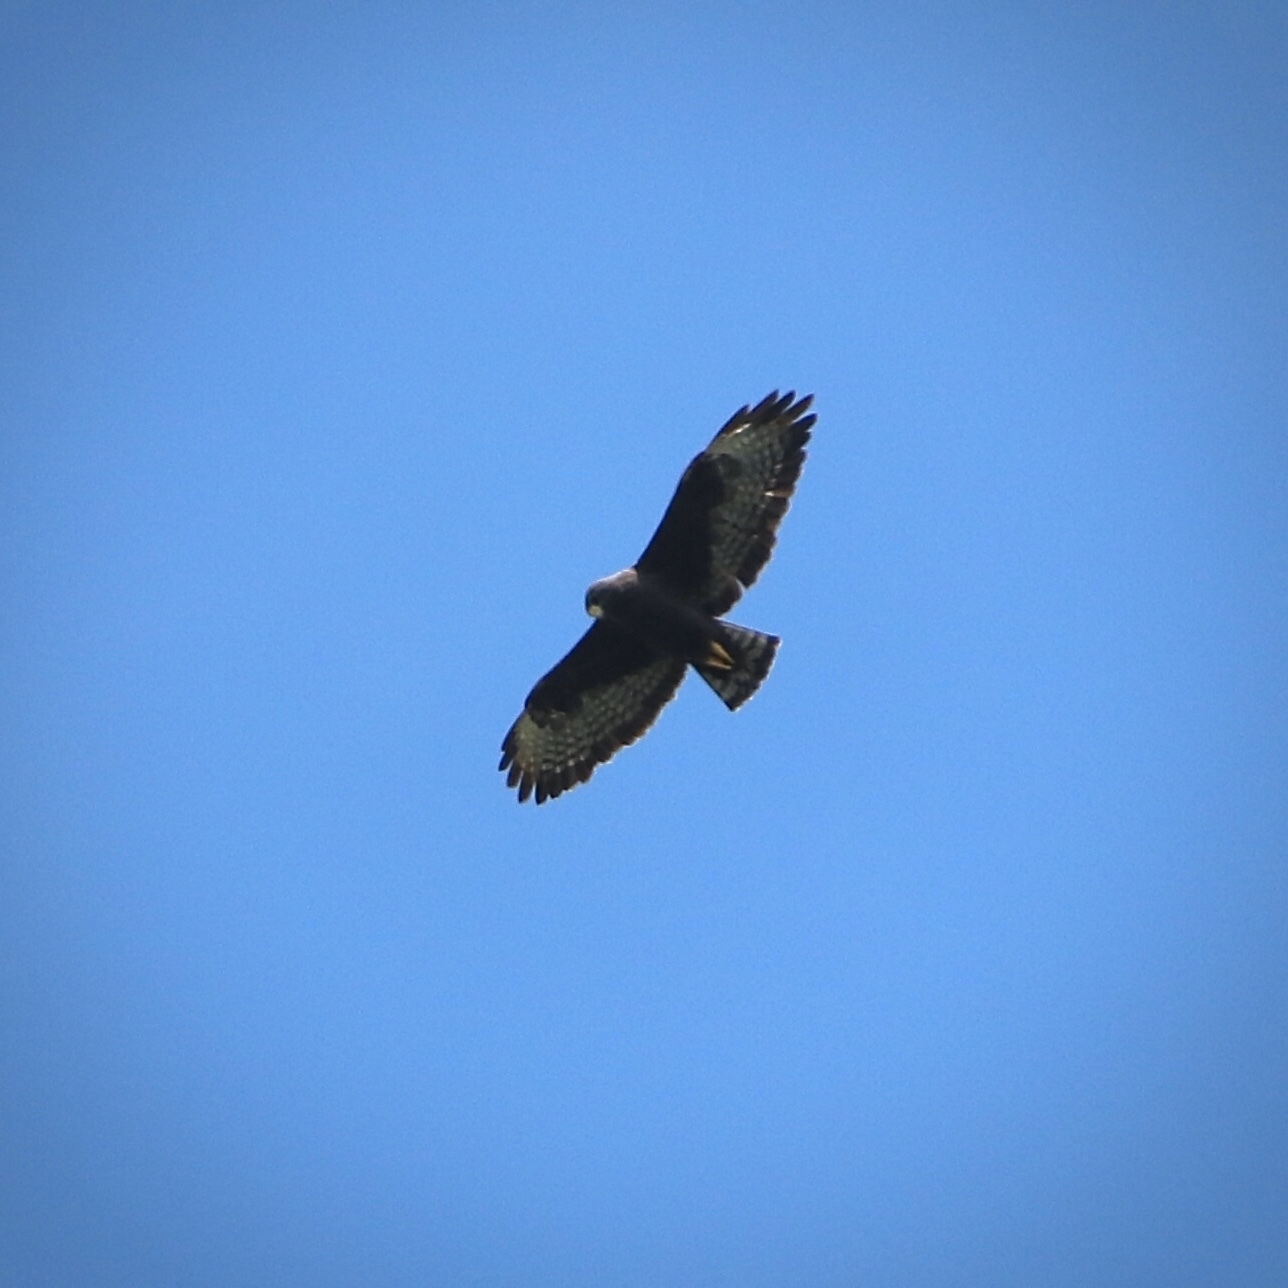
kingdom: Animalia
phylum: Chordata
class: Aves
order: Accipitriformes
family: Accipitridae
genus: Buteo
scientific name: Buteo brachyurus
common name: Short-tailed hawk
